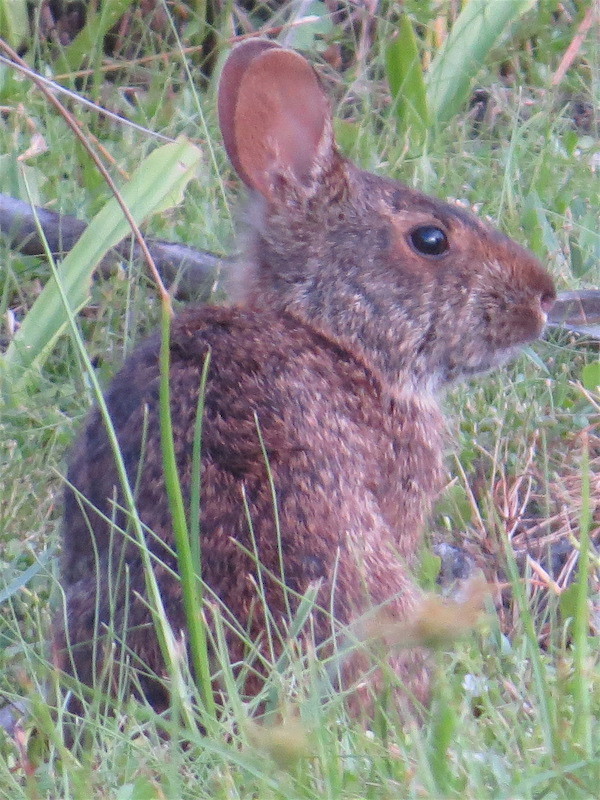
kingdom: Animalia
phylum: Chordata
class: Mammalia
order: Lagomorpha
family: Leporidae
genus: Sylvilagus
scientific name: Sylvilagus palustris
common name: Marsh rabbit
